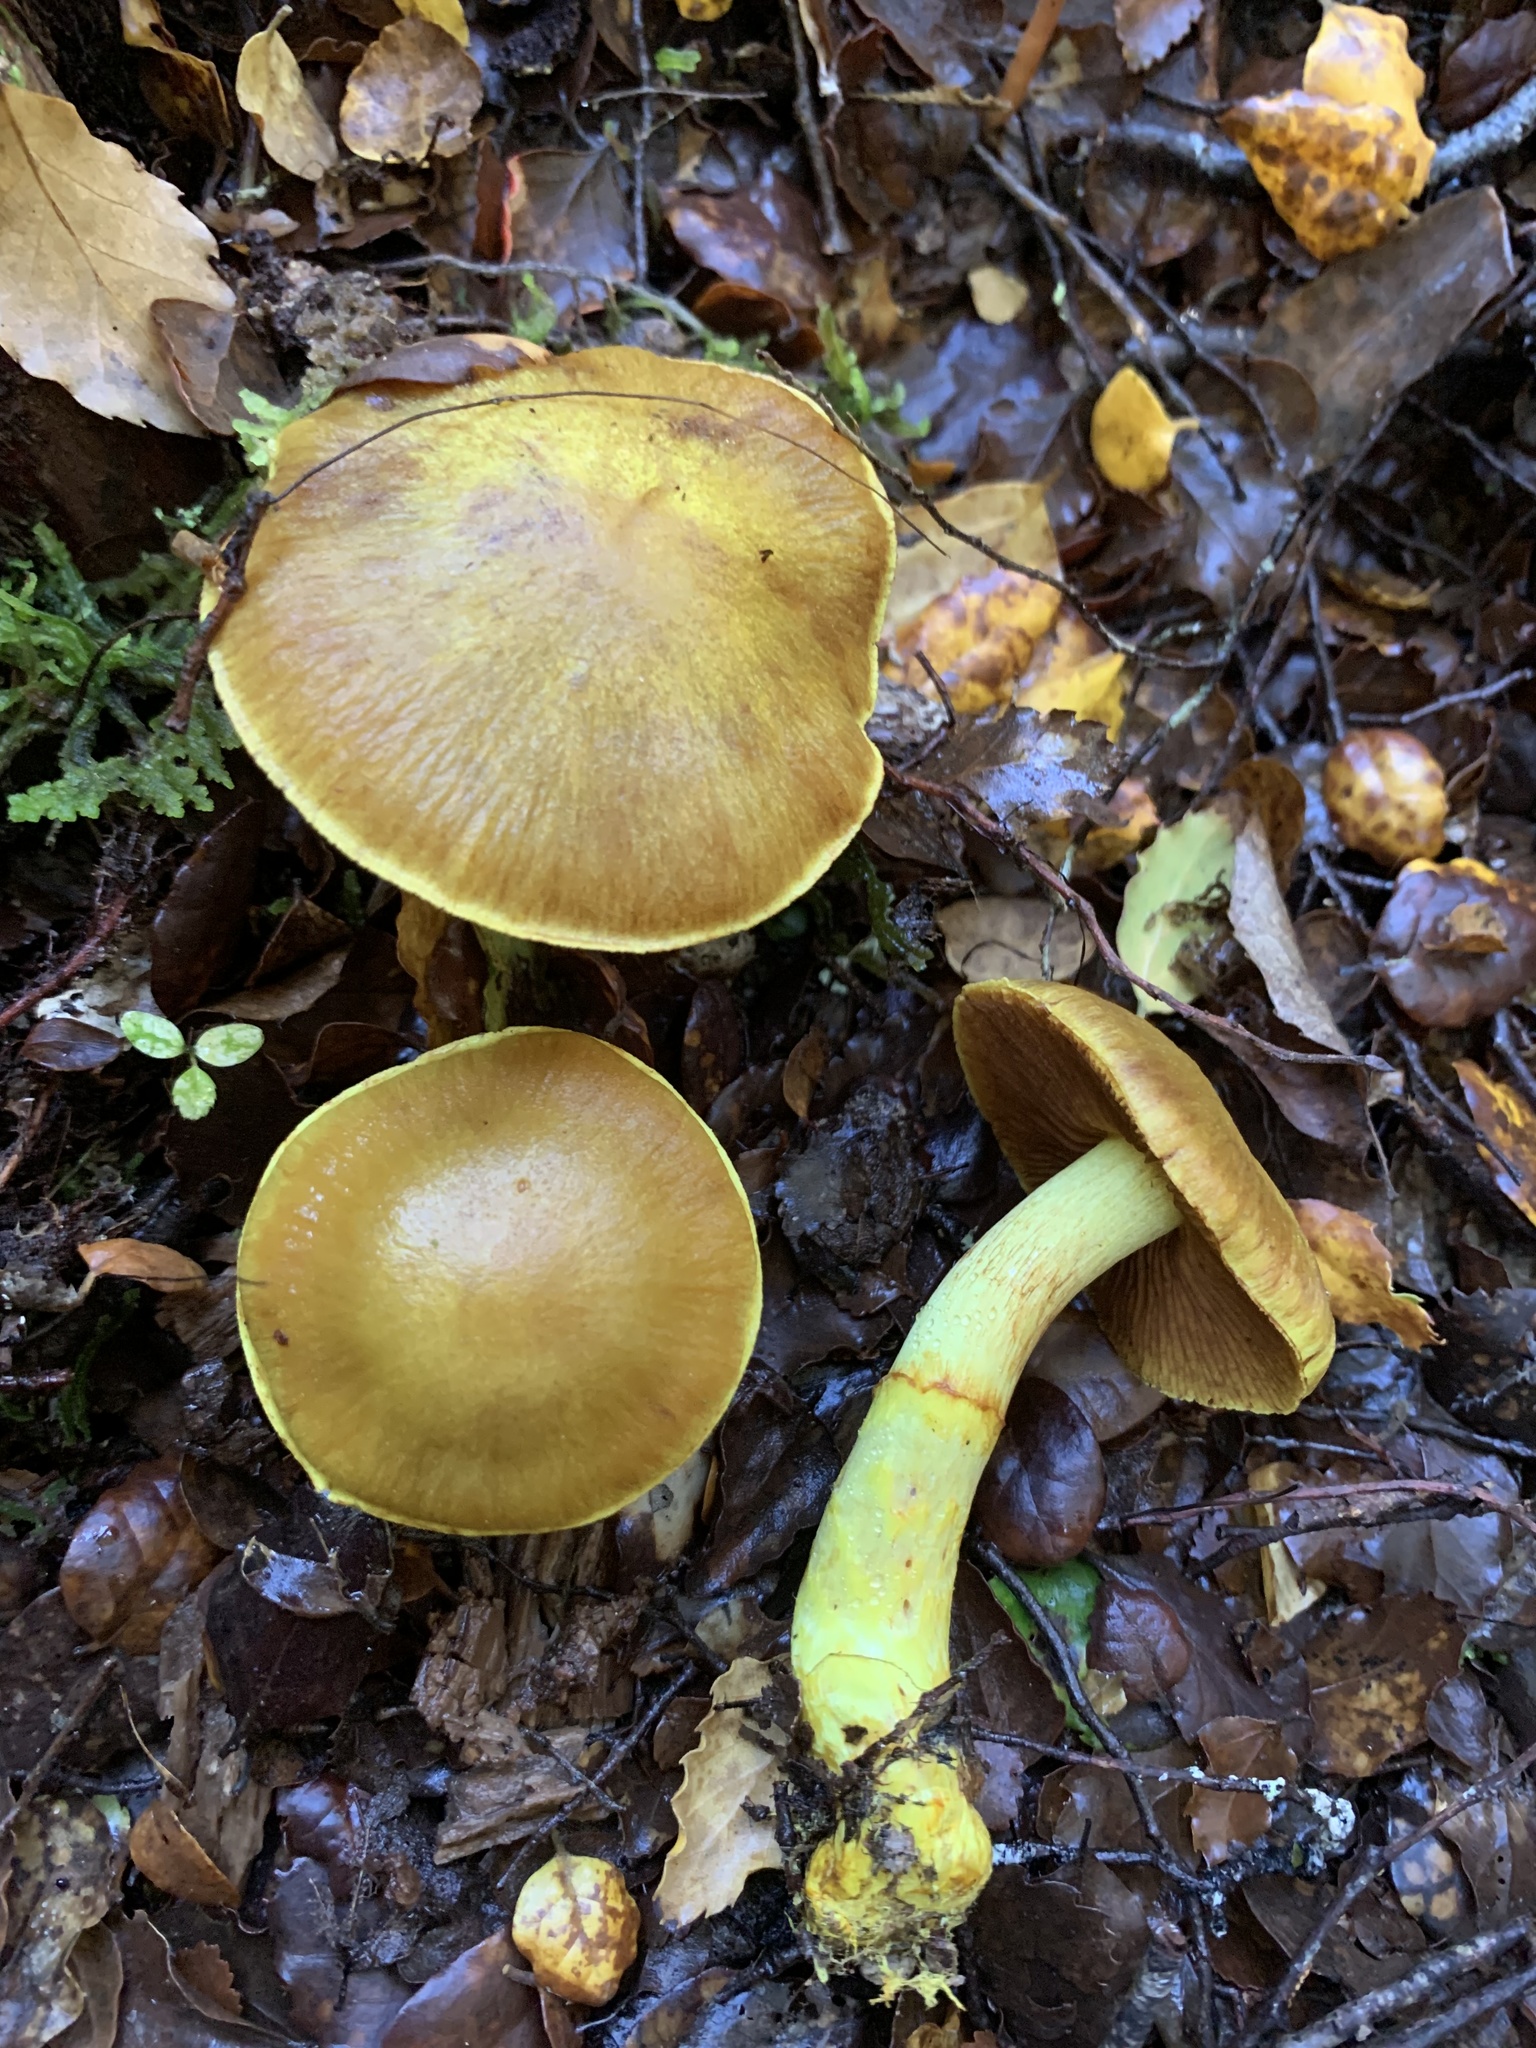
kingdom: Fungi
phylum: Basidiomycota
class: Agaricomycetes
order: Agaricales
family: Cortinariaceae
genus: Cortinarius
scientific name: Cortinarius canarius
